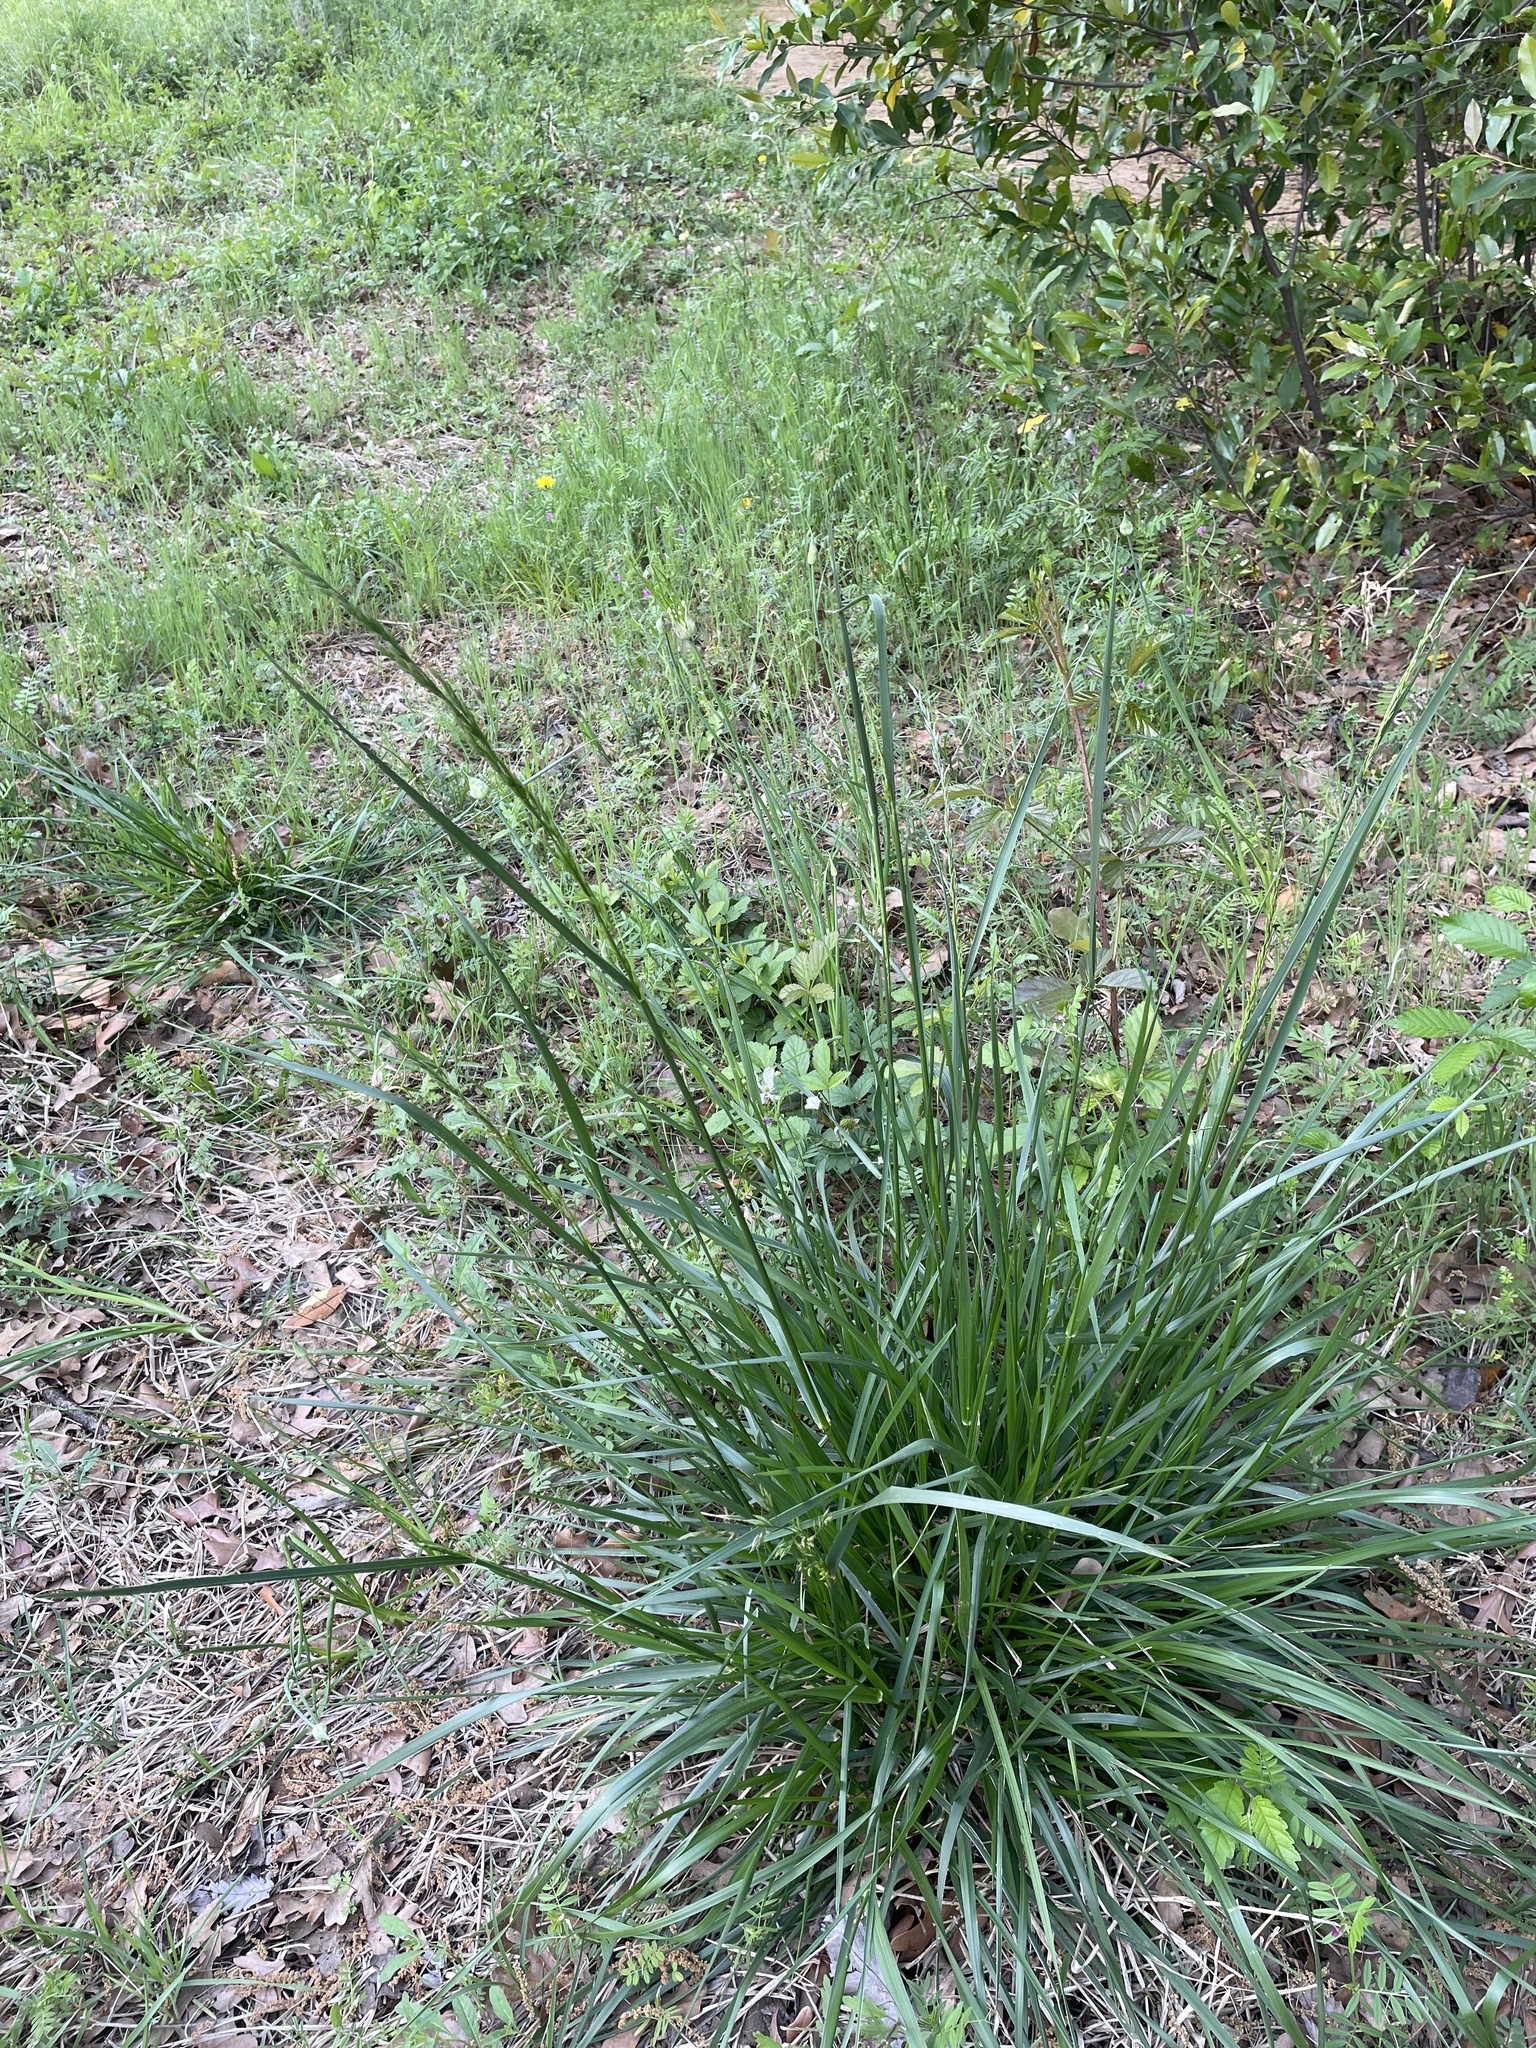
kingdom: Plantae
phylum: Tracheophyta
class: Liliopsida
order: Poales
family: Poaceae
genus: Lolium
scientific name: Lolium arundinaceum
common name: Reed fescue
